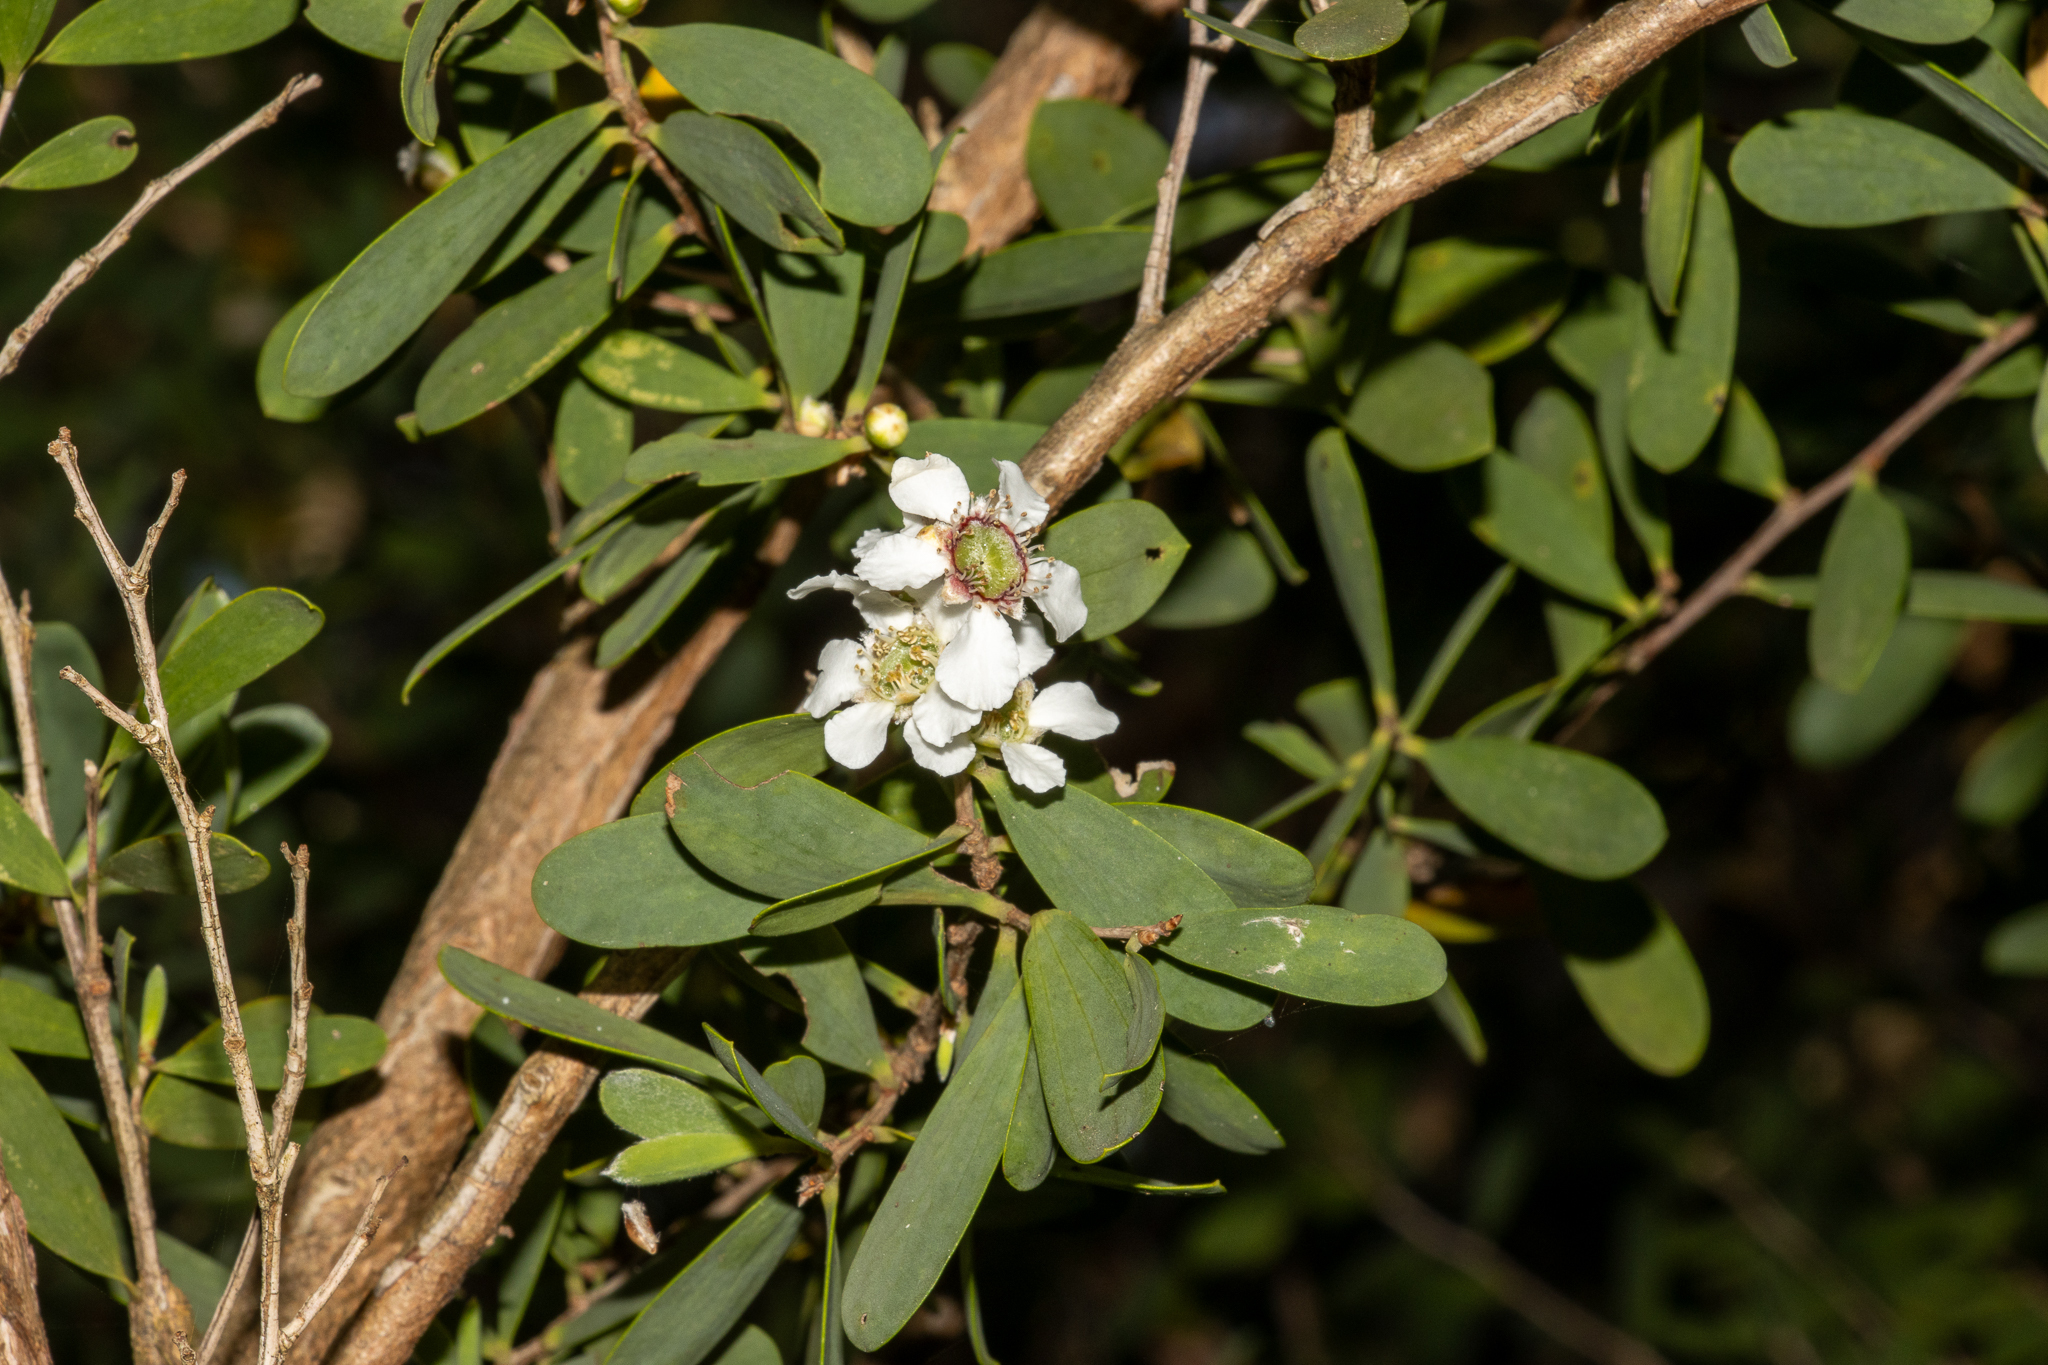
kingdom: Plantae
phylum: Tracheophyta
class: Magnoliopsida
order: Myrtales
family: Myrtaceae
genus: Leptospermum
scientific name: Leptospermum laevigatum
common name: Australian teatree
